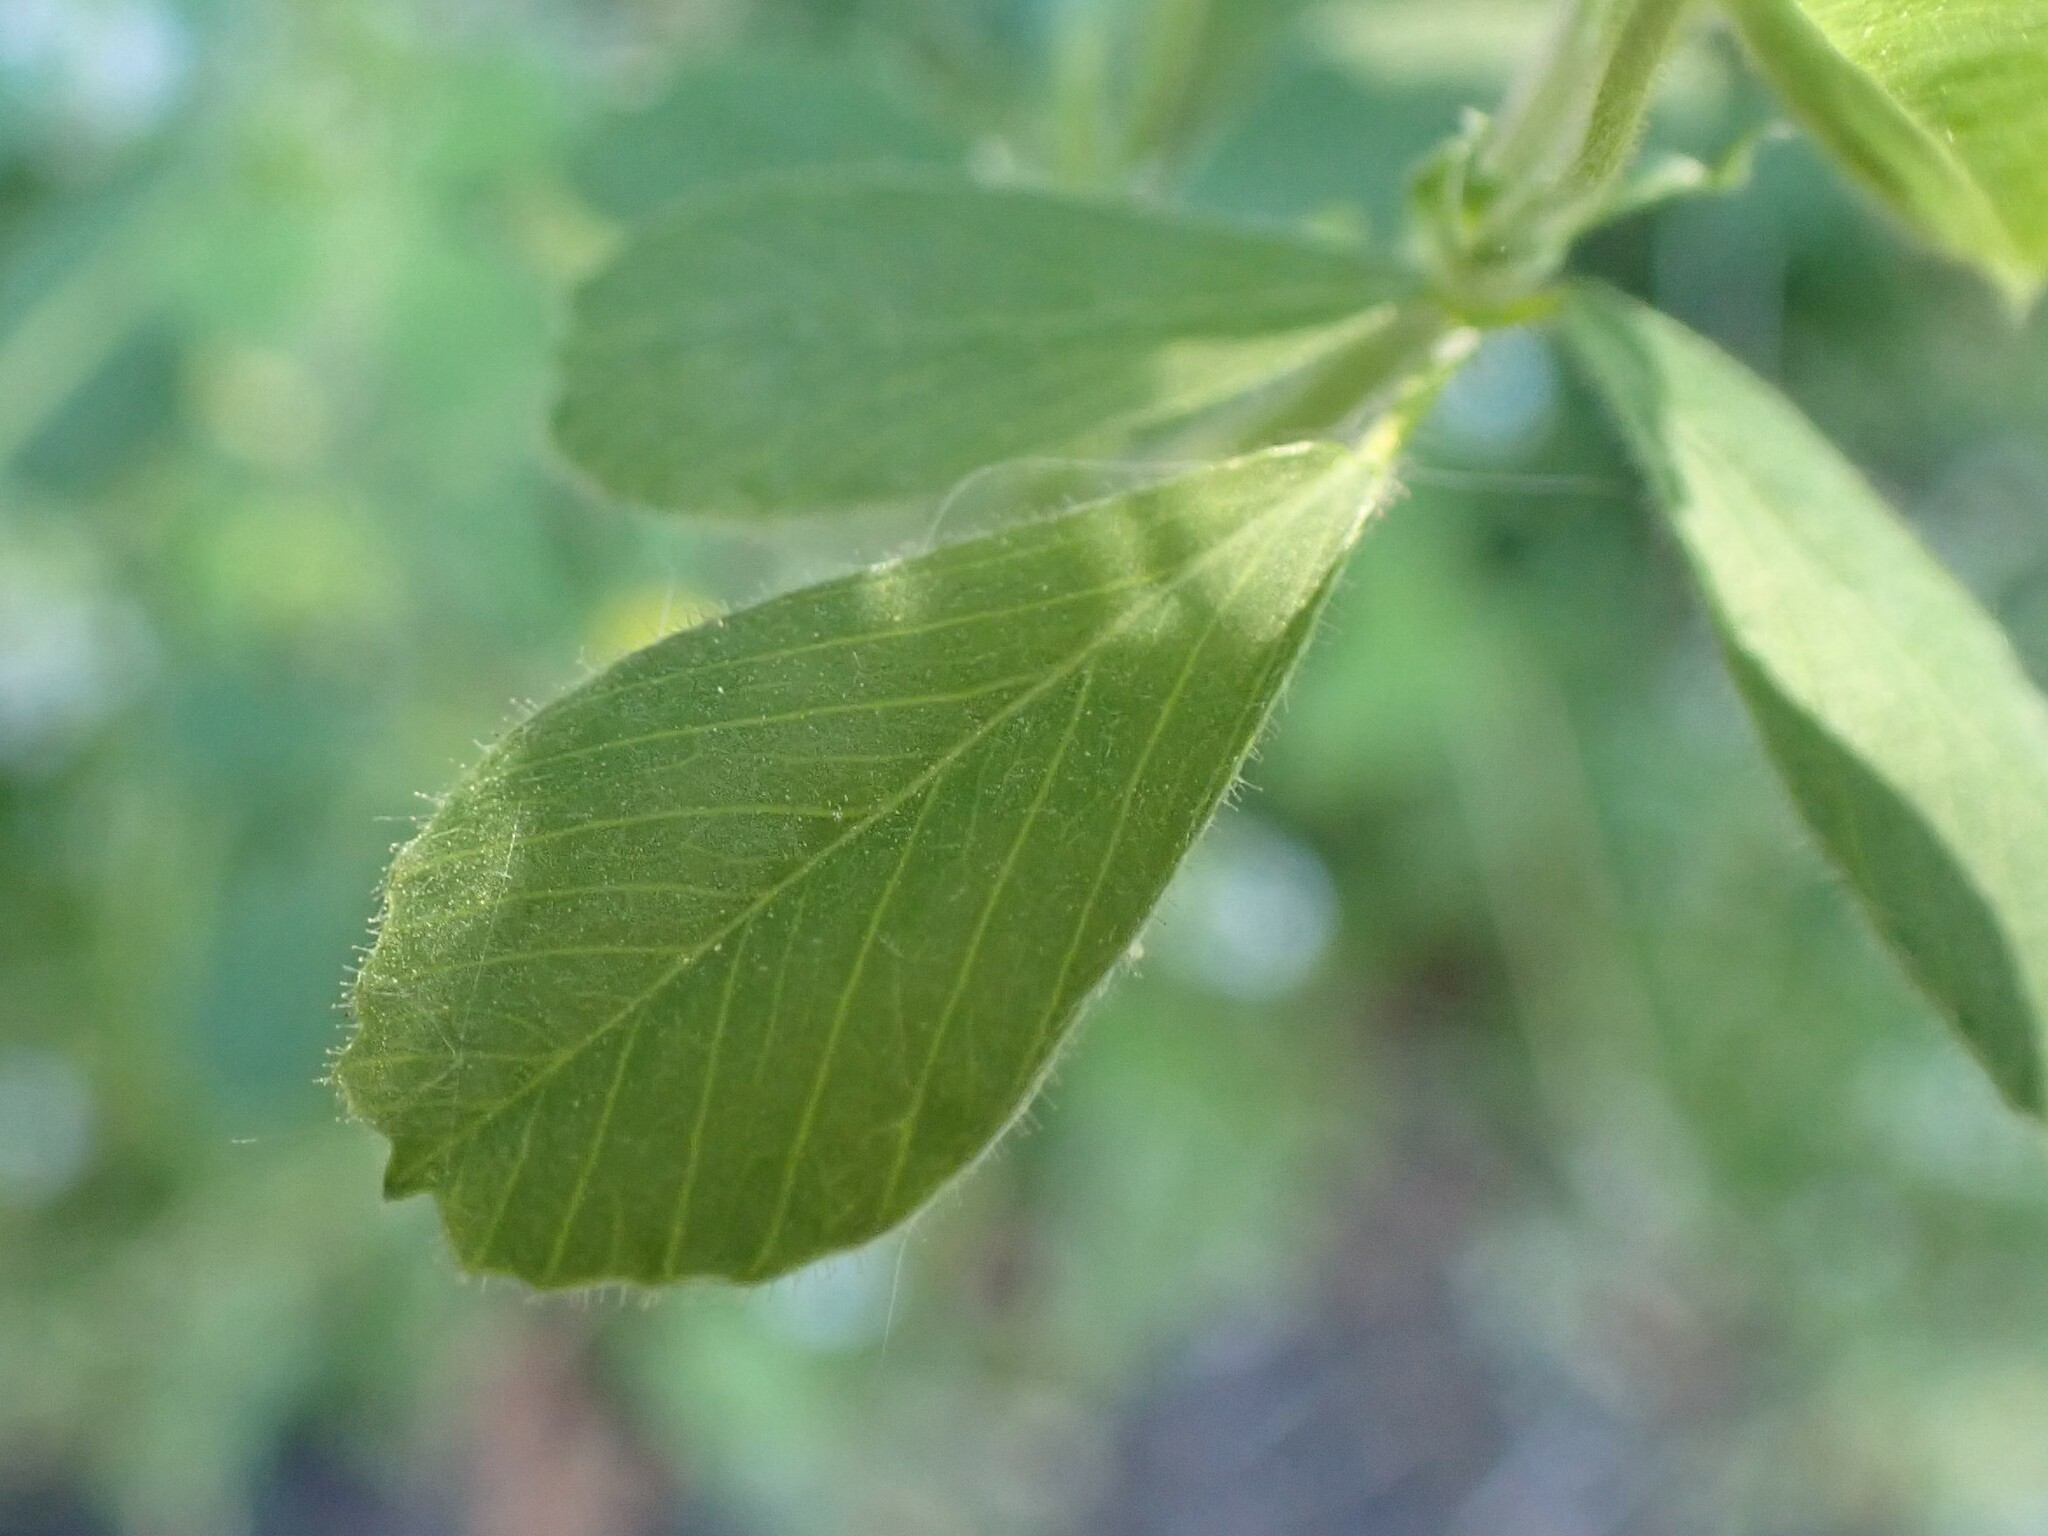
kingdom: Plantae
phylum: Tracheophyta
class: Magnoliopsida
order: Fabales
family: Fabaceae
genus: Medicago
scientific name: Medicago lupulina
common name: Black medick
